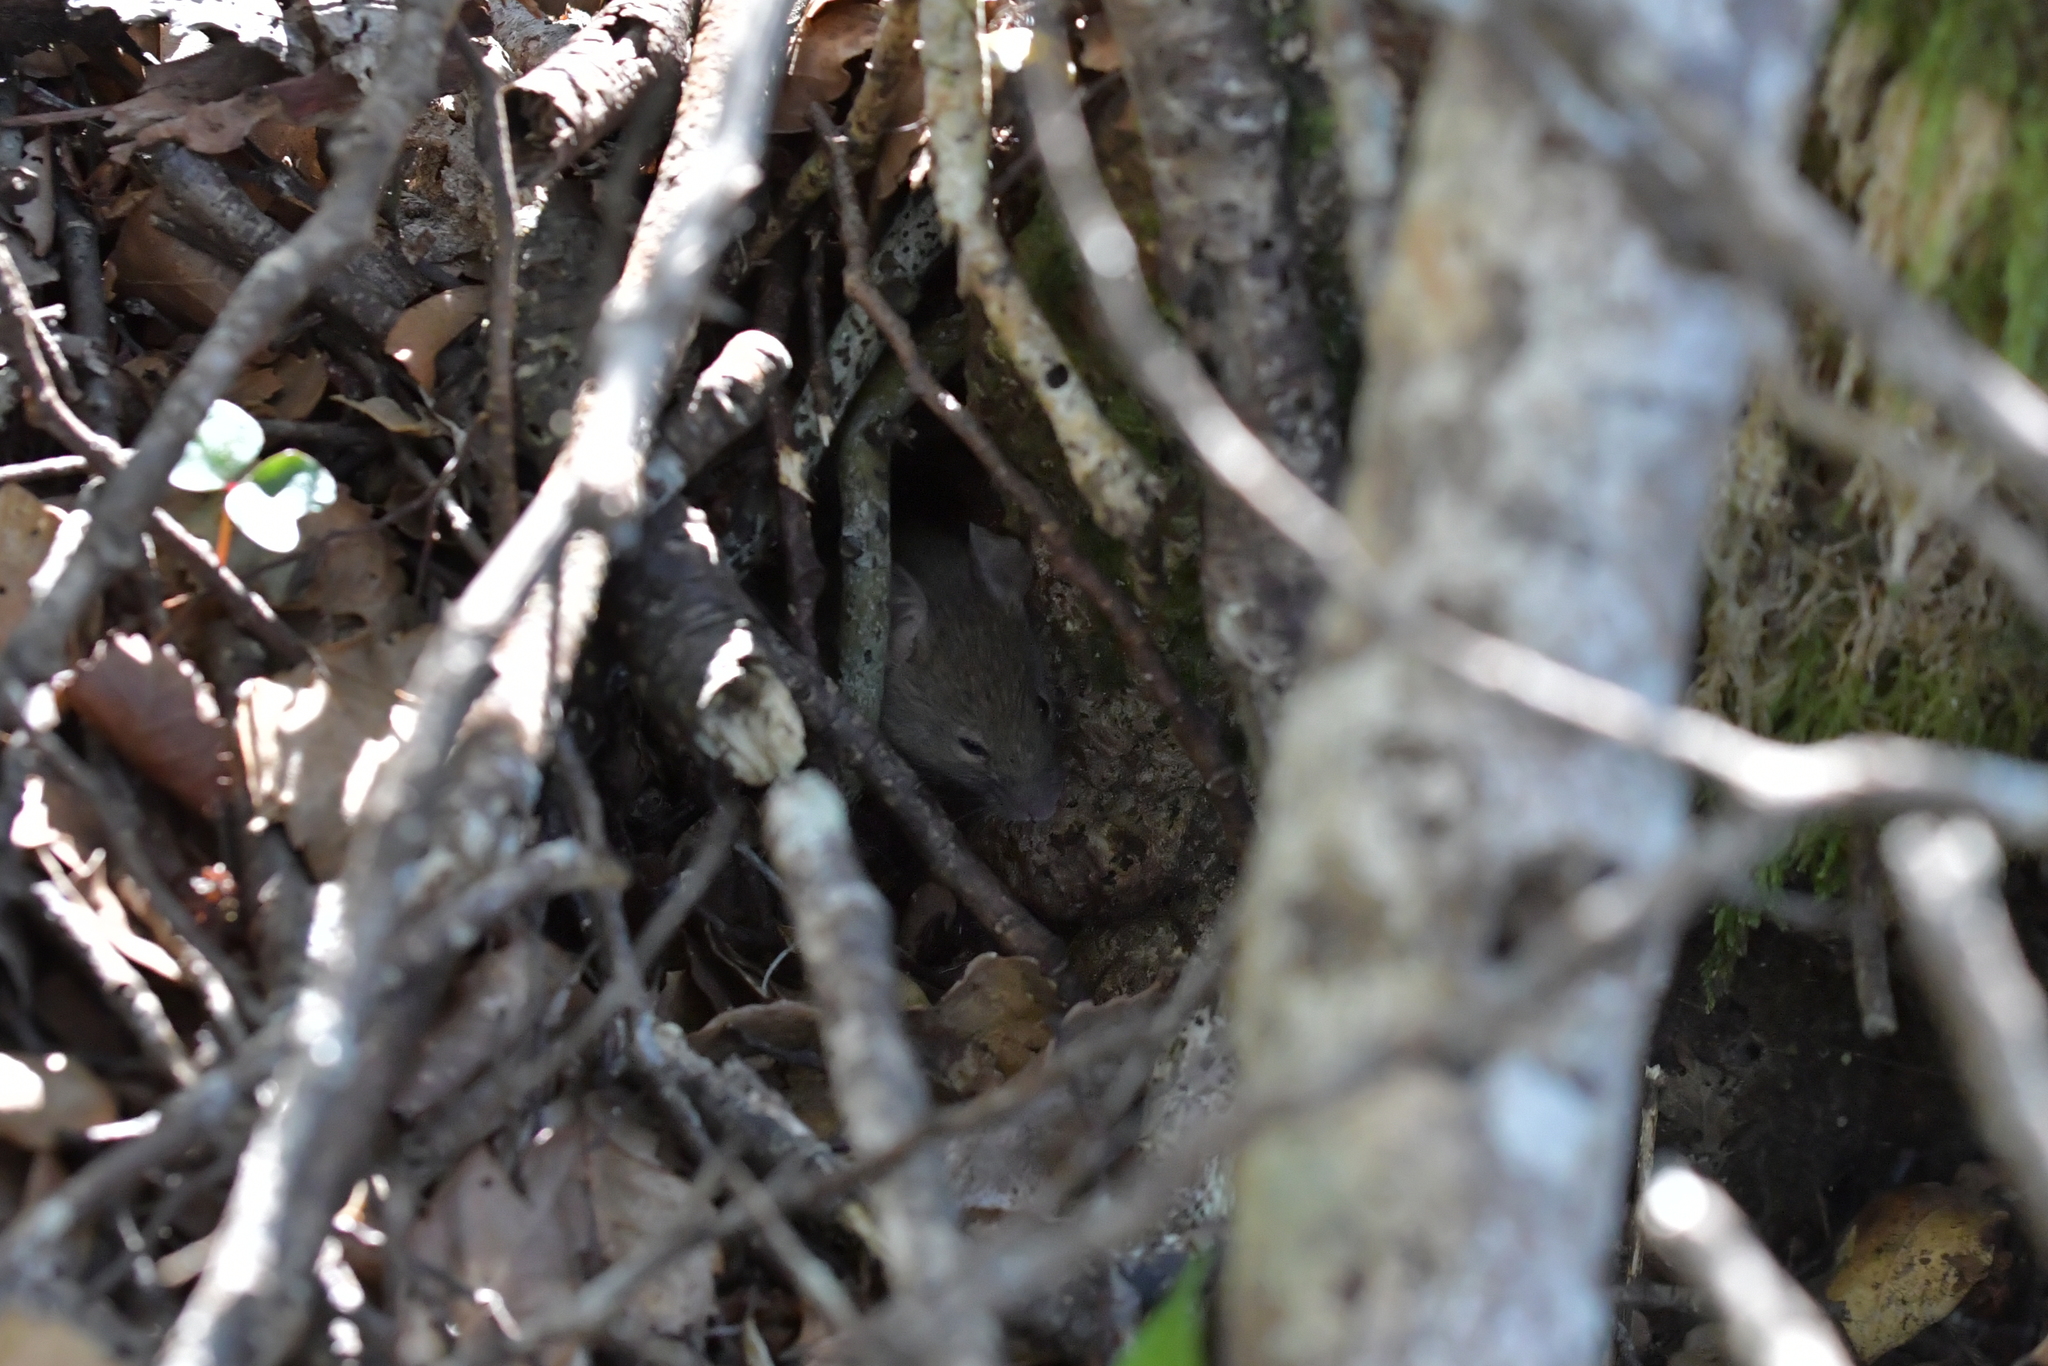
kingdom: Animalia
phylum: Chordata
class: Mammalia
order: Rodentia
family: Muridae
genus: Mus
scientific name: Mus musculus
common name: House mouse
